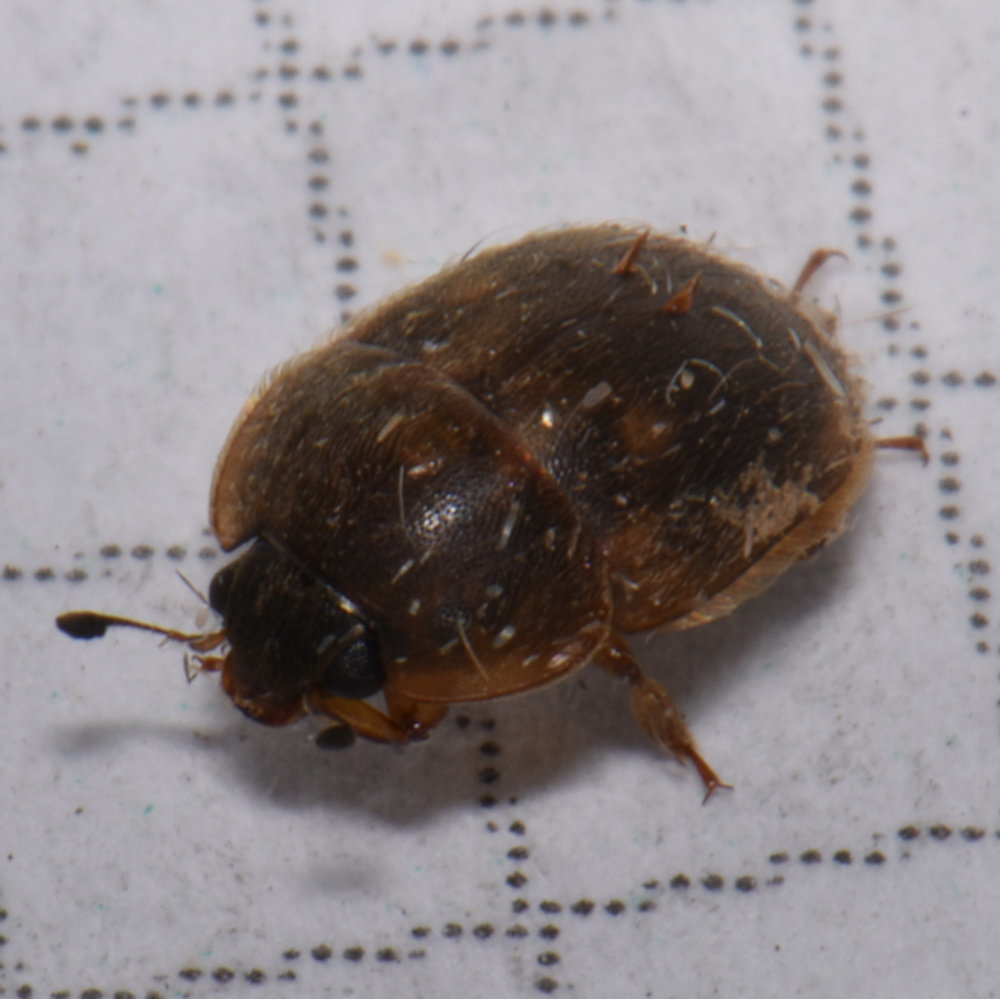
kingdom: Animalia
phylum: Arthropoda
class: Insecta
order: Coleoptera
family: Nitidulidae
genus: Amphicrossus
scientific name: Amphicrossus ciliatus
